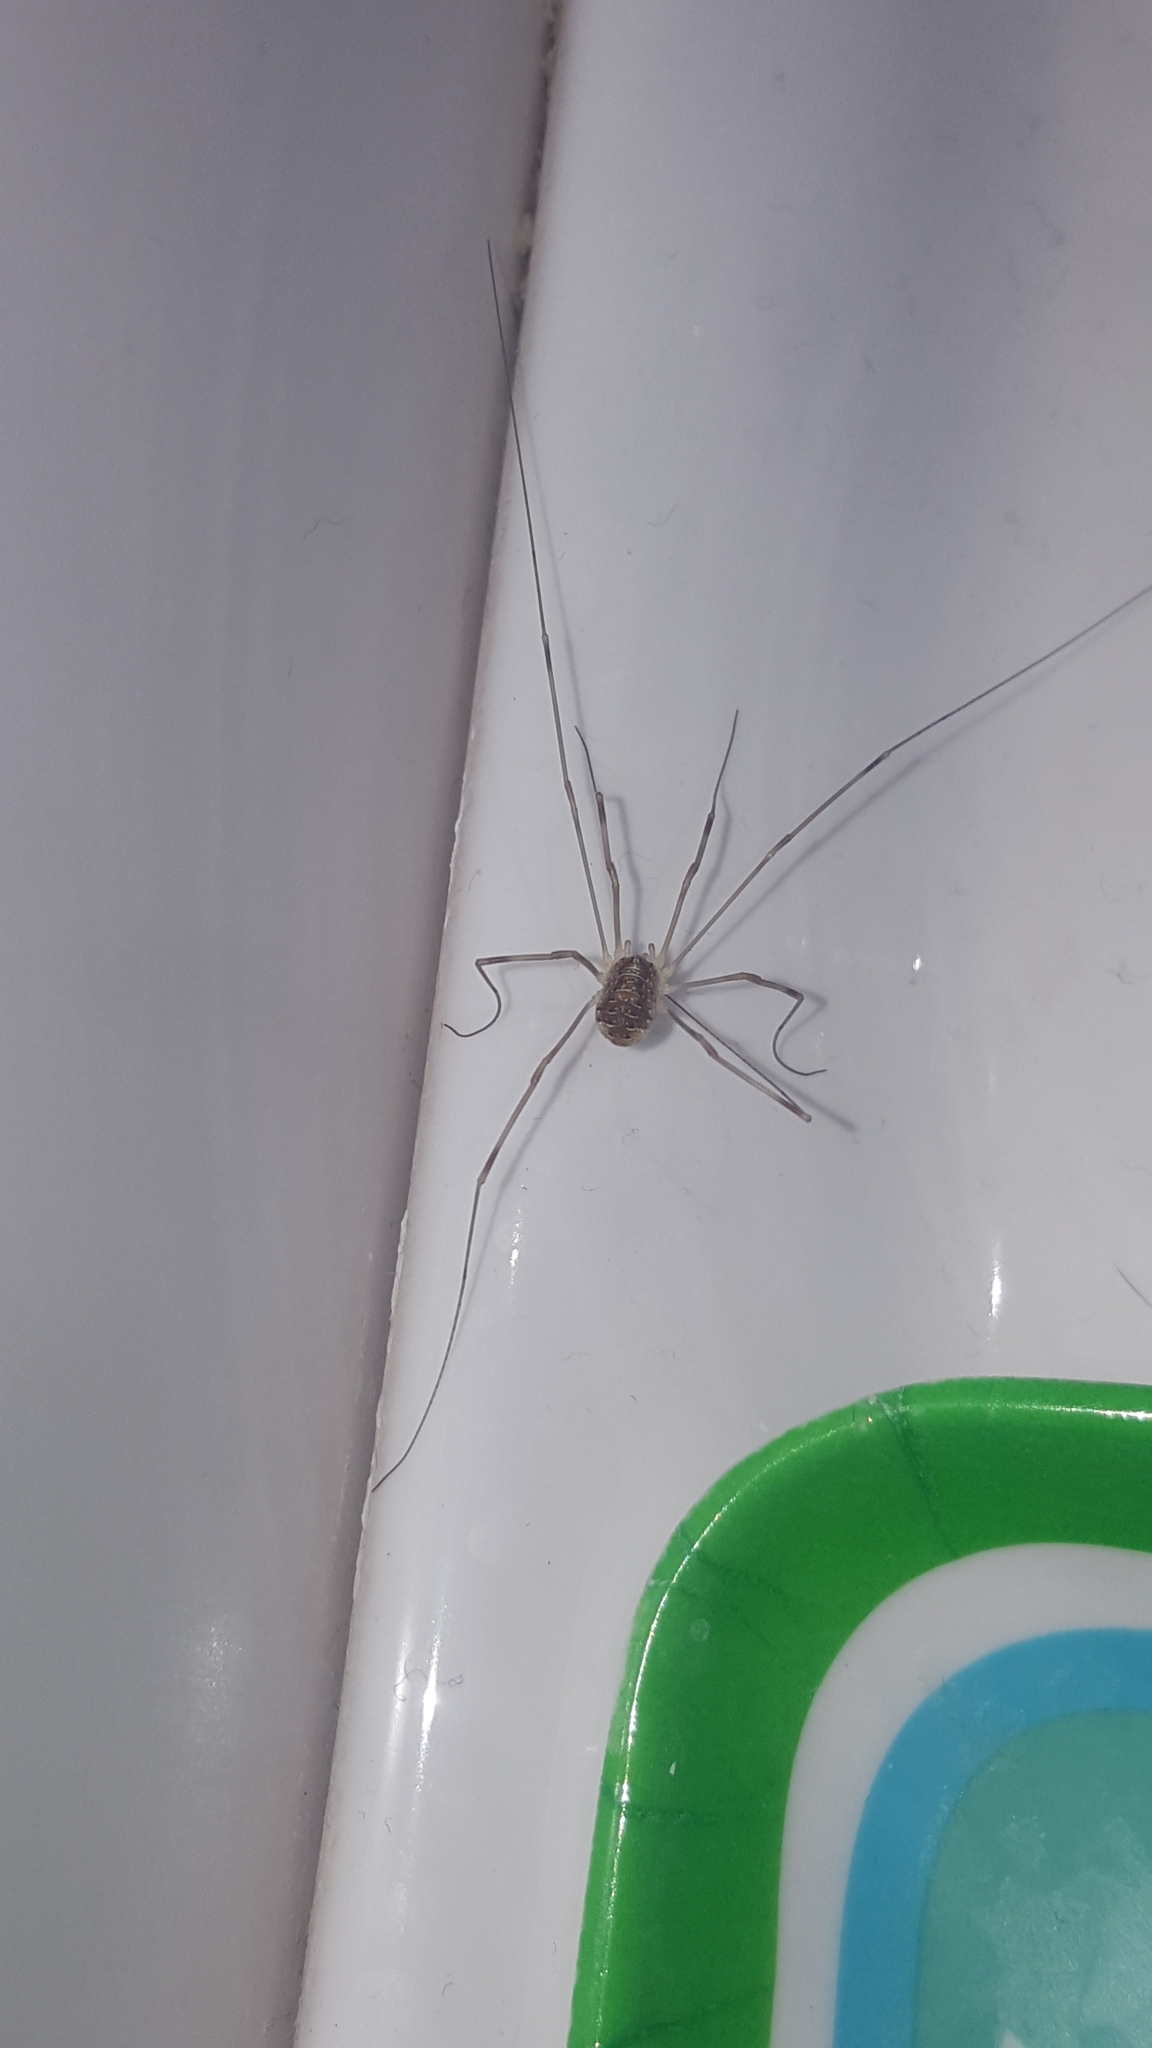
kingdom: Animalia
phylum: Arthropoda
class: Arachnida
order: Opiliones
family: Phalangiidae
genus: Opilio
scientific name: Opilio canestrinii
